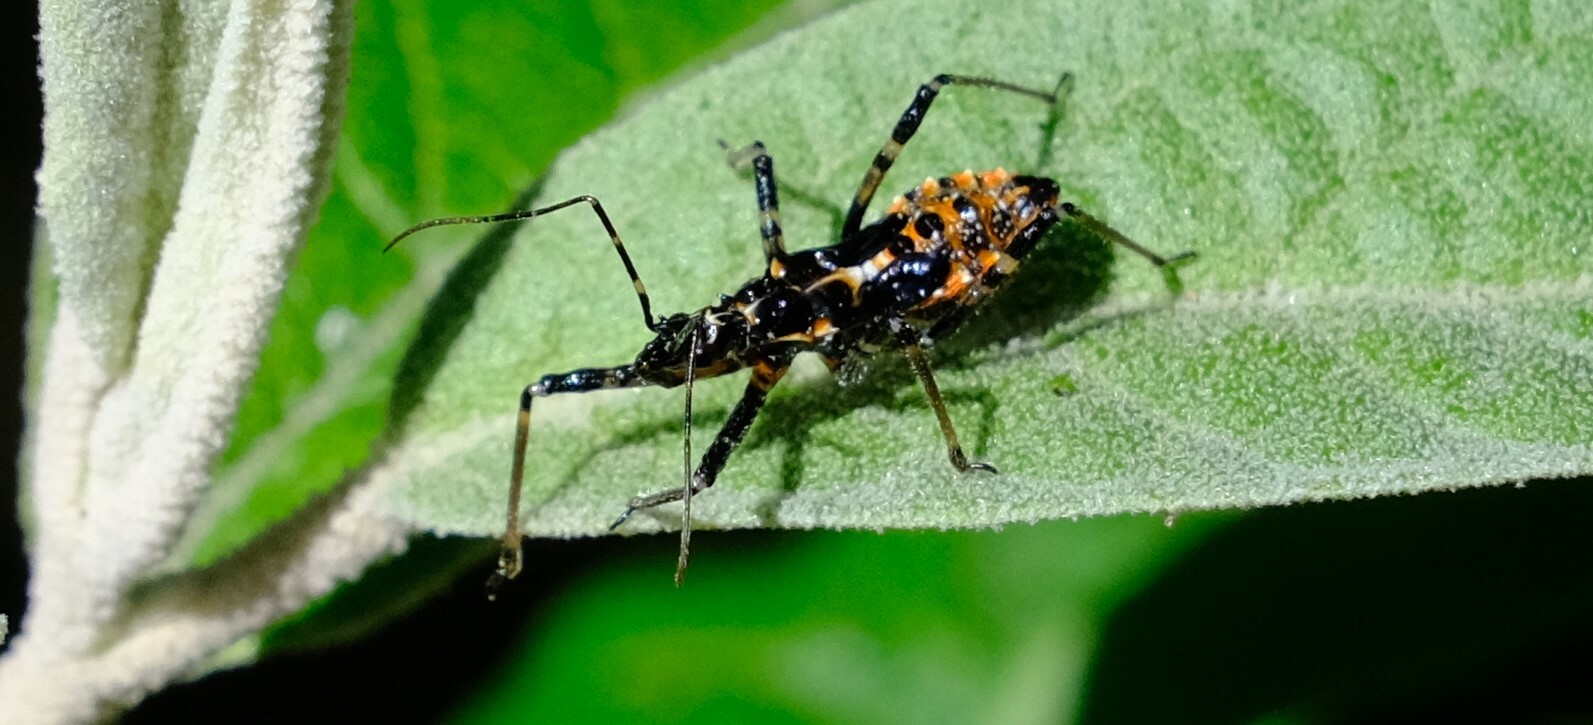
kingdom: Animalia
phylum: Arthropoda
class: Insecta
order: Hemiptera
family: Reduviidae
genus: Gminatus
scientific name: Gminatus australis
